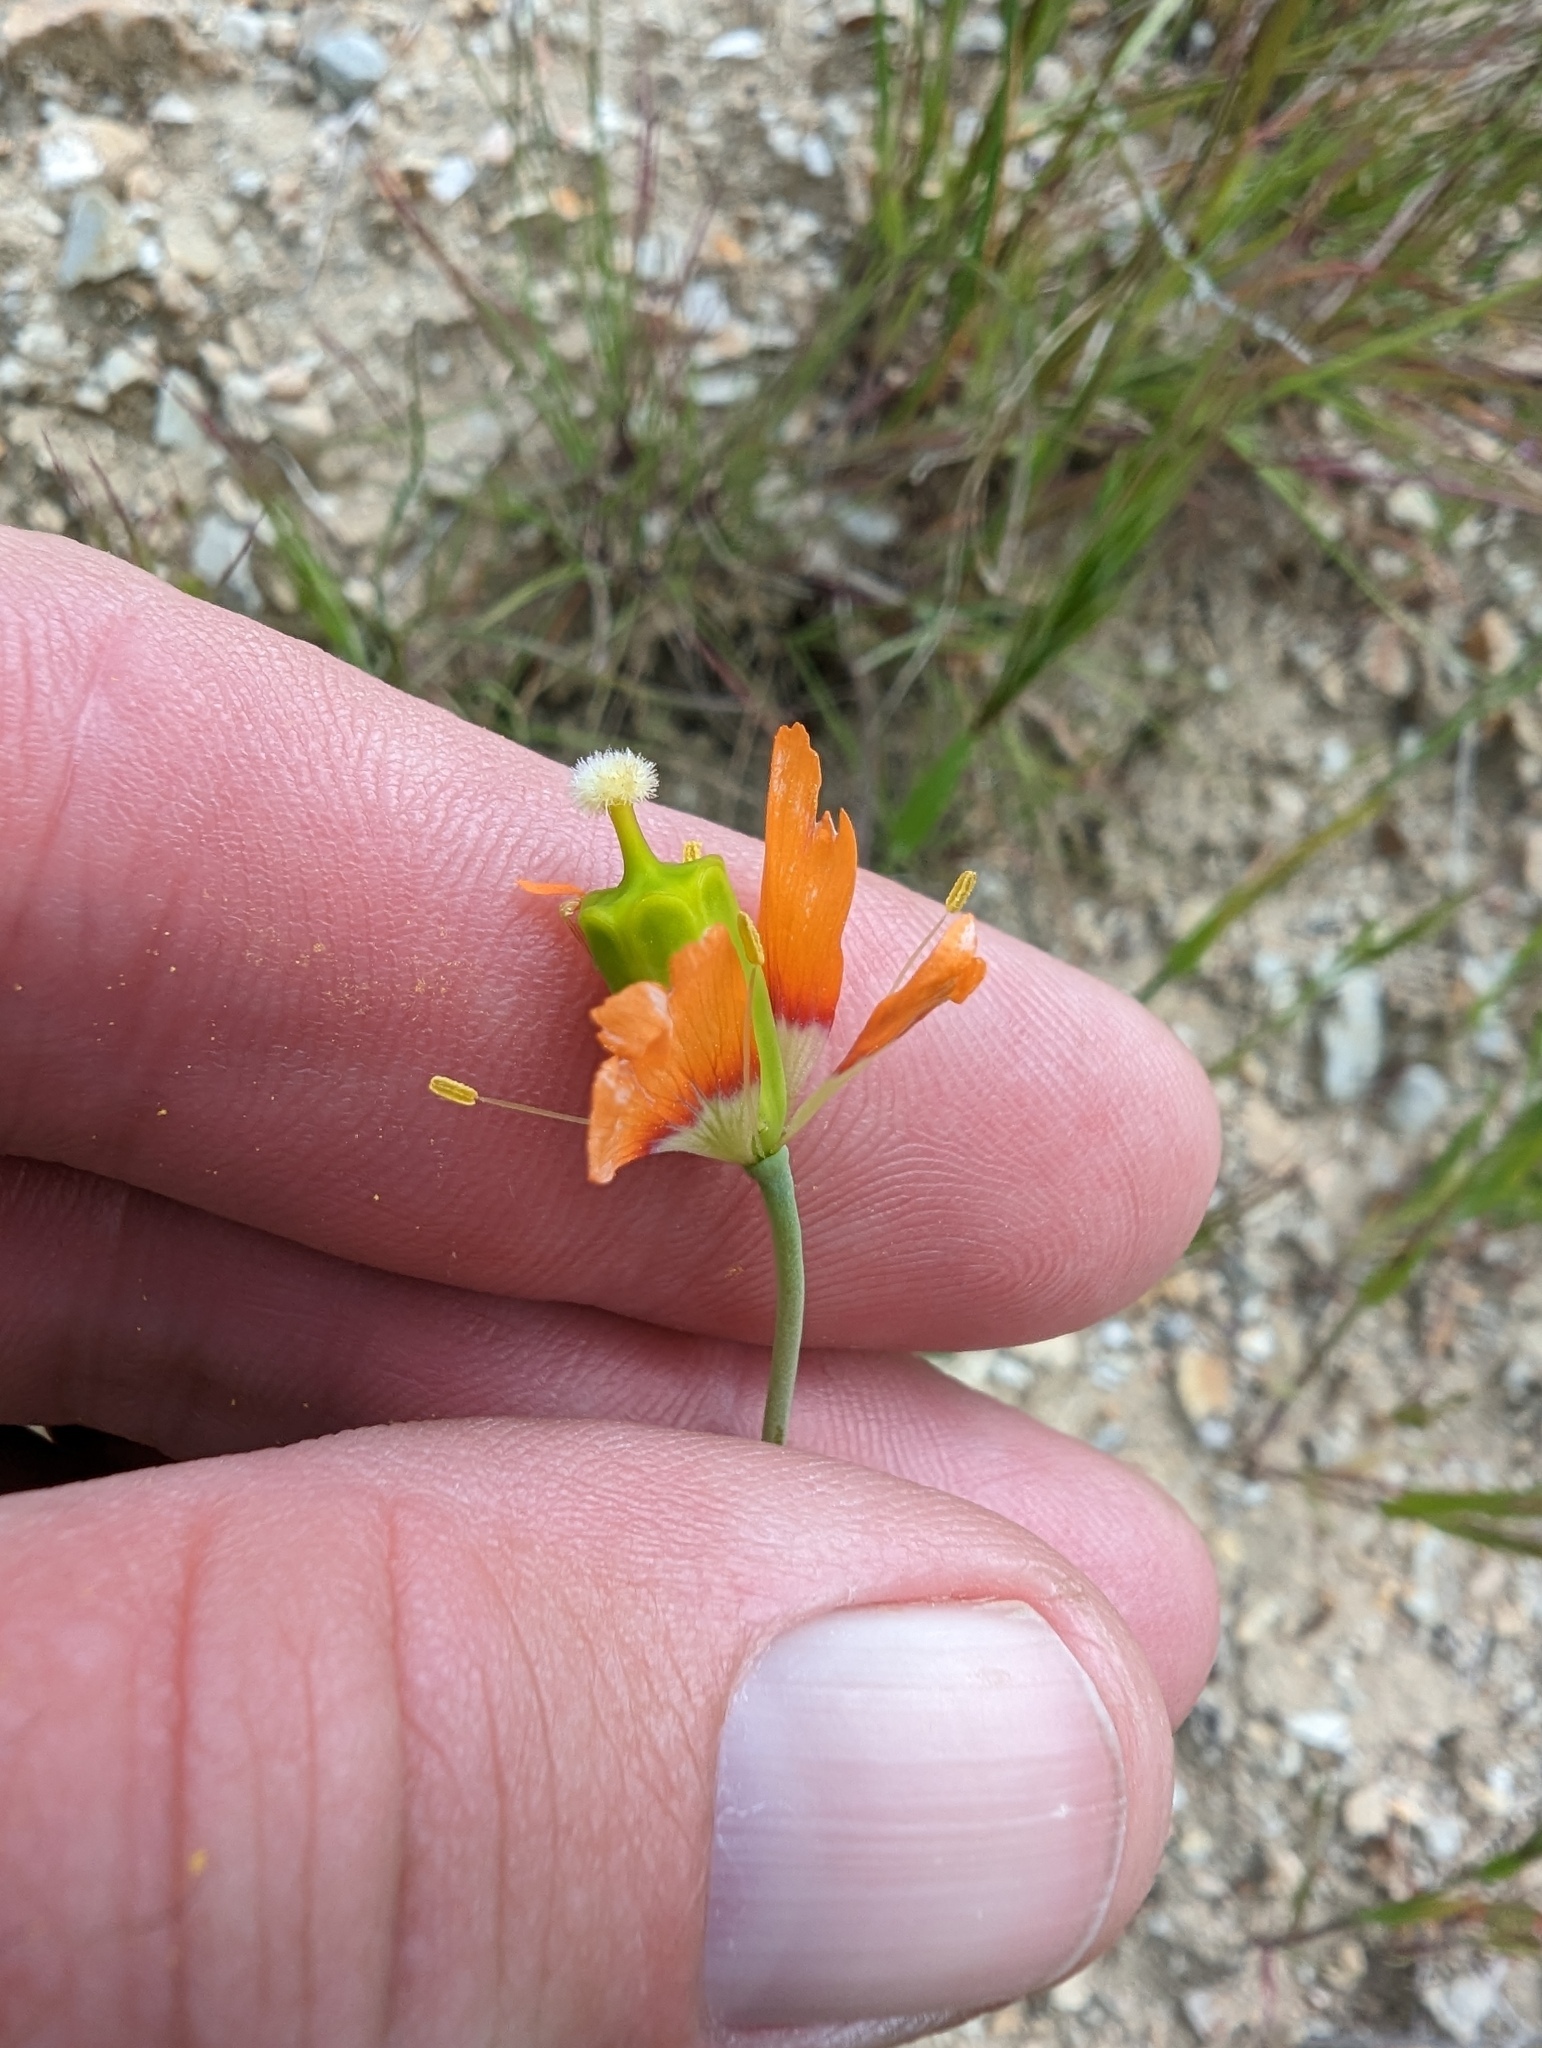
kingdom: Plantae
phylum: Tracheophyta
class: Magnoliopsida
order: Ranunculales
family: Papaveraceae
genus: Stylomecon
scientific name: Stylomecon heterophylla
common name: Flaming-poppy
